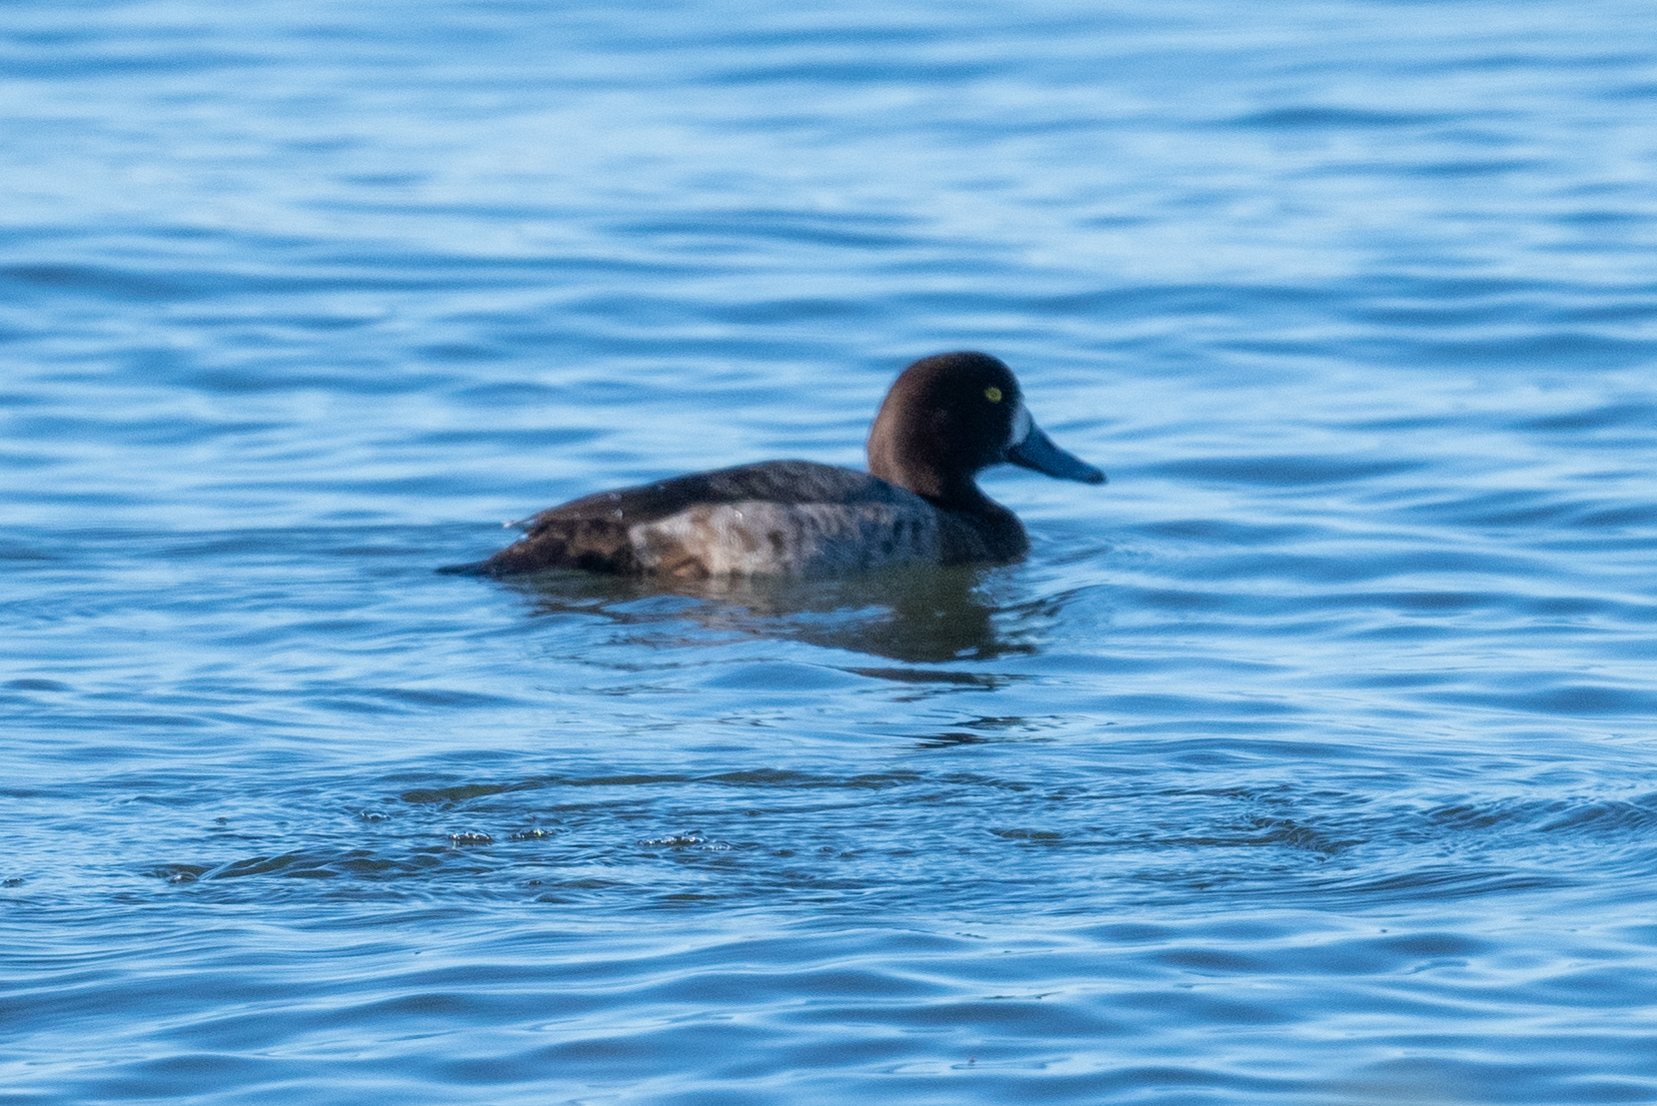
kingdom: Animalia
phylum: Chordata
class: Aves
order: Anseriformes
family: Anatidae
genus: Aythya
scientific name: Aythya marila
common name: Greater scaup
